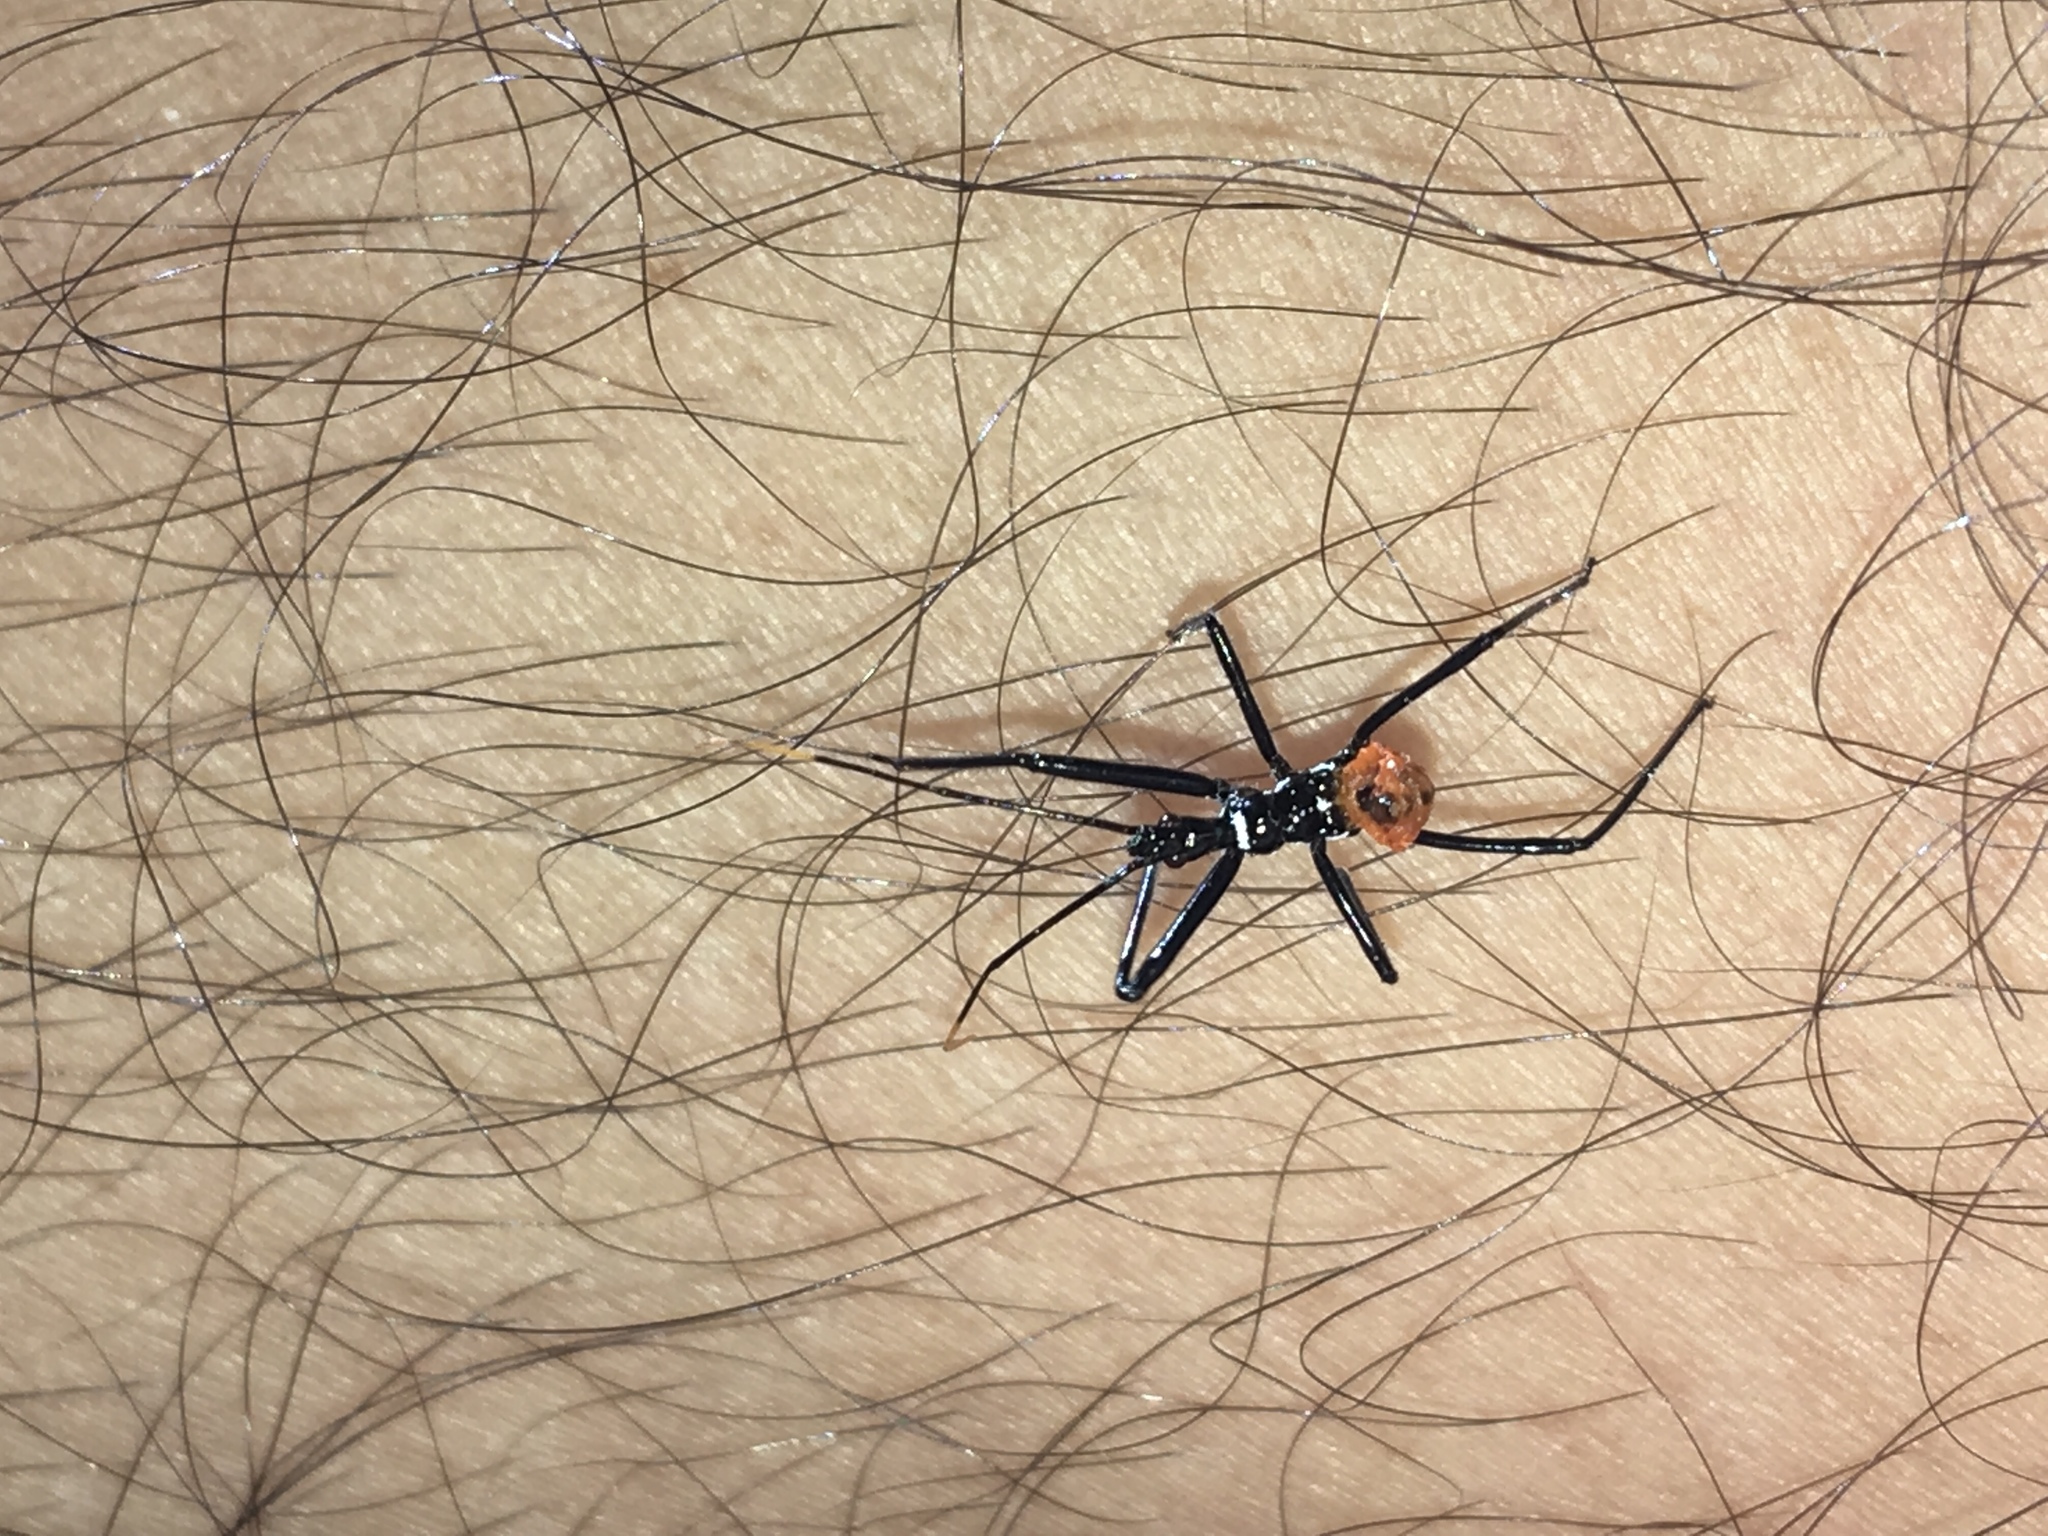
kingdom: Animalia
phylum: Arthropoda
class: Insecta
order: Hemiptera
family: Reduviidae
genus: Arilus
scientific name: Arilus cristatus
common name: North american wheel bug
